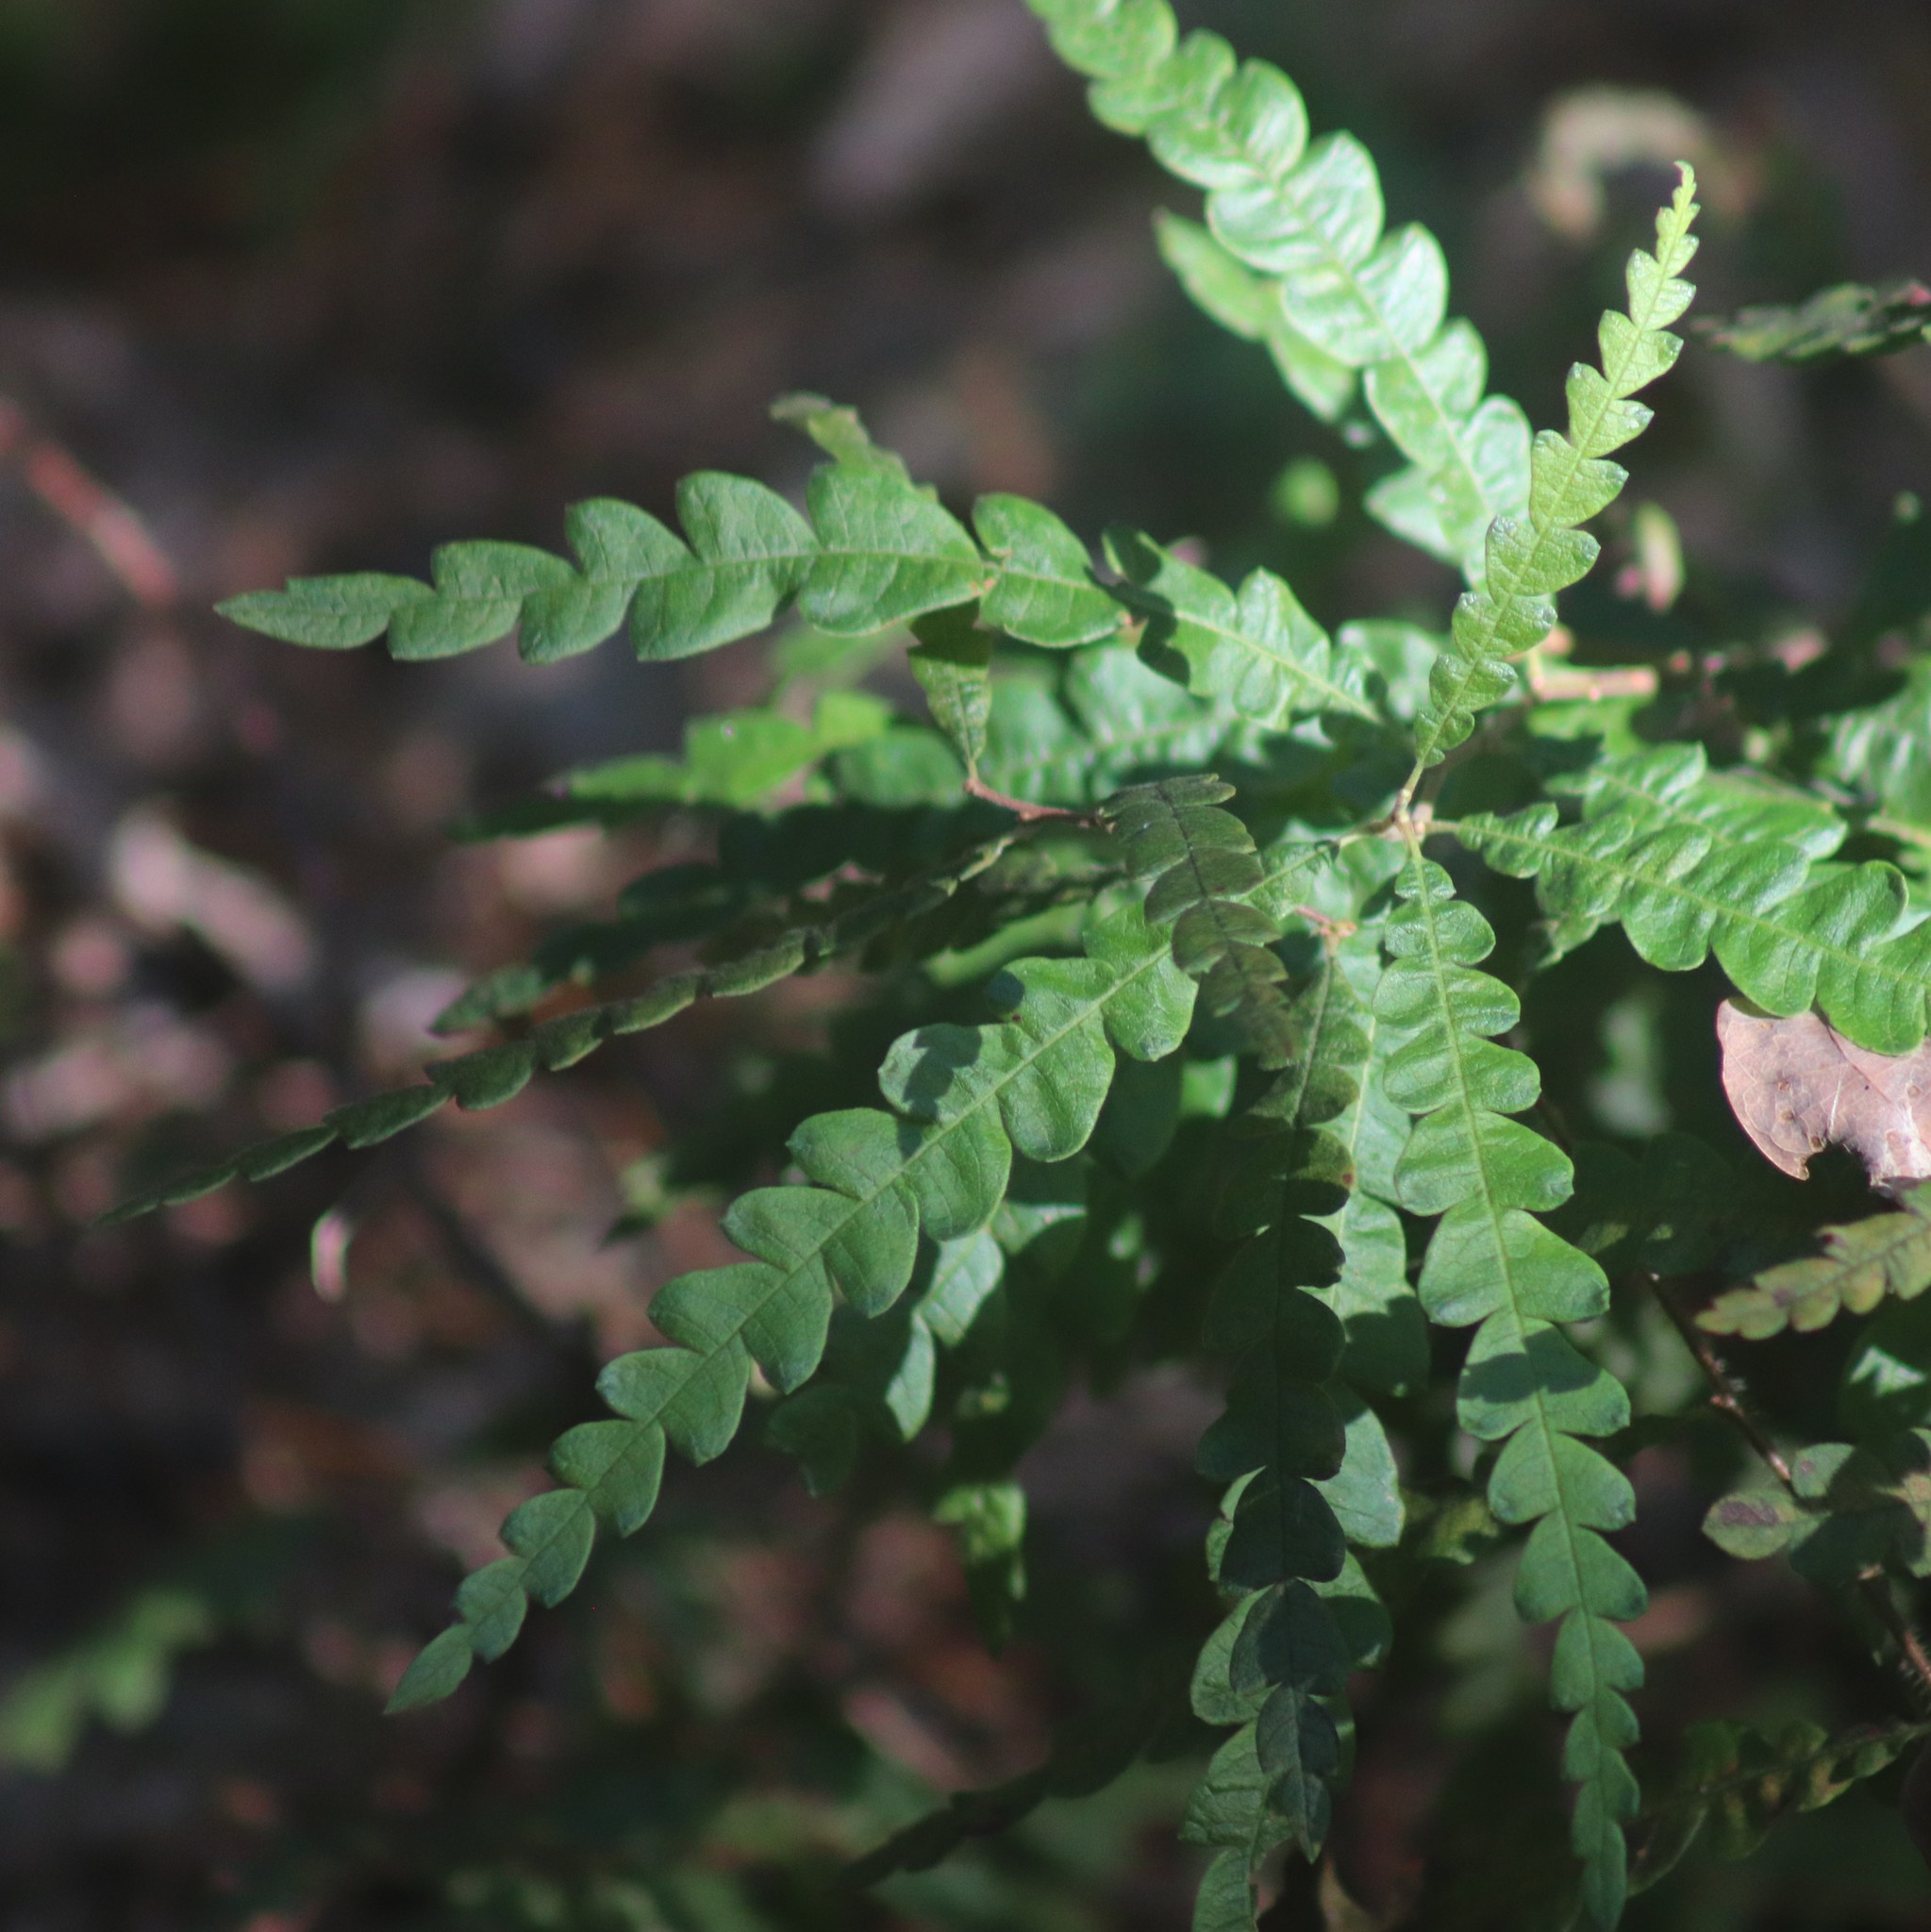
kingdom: Plantae
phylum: Tracheophyta
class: Magnoliopsida
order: Fagales
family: Myricaceae
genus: Comptonia
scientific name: Comptonia peregrina
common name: Sweet-fern
